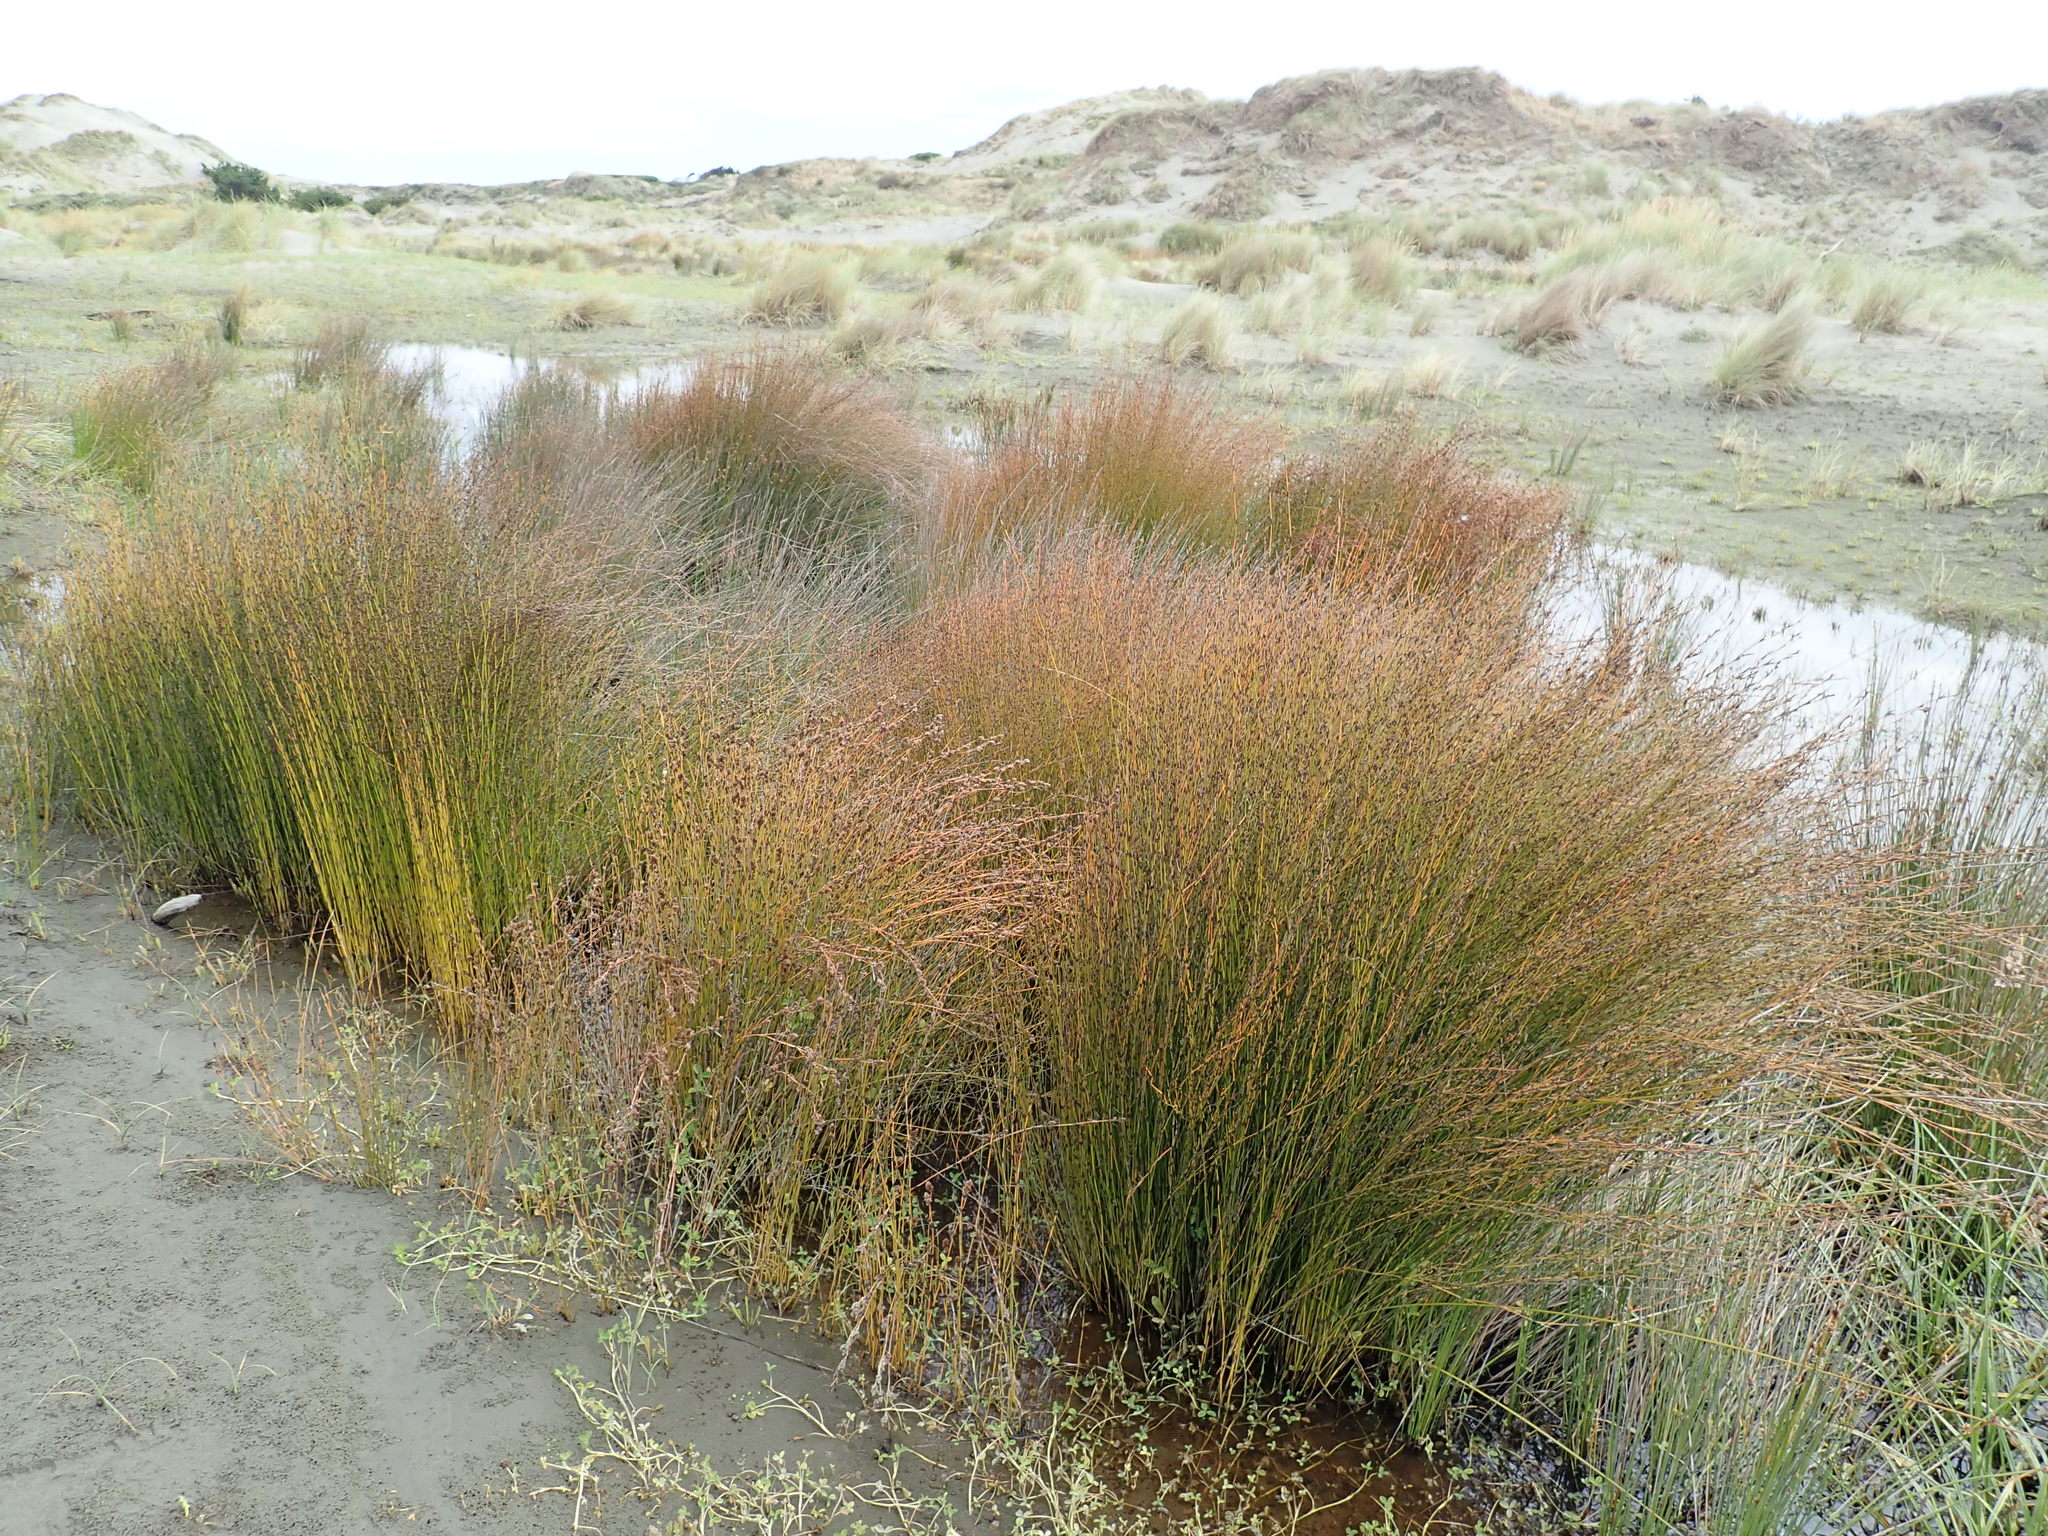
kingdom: Plantae
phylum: Tracheophyta
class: Liliopsida
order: Poales
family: Restionaceae
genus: Apodasmia
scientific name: Apodasmia similis
